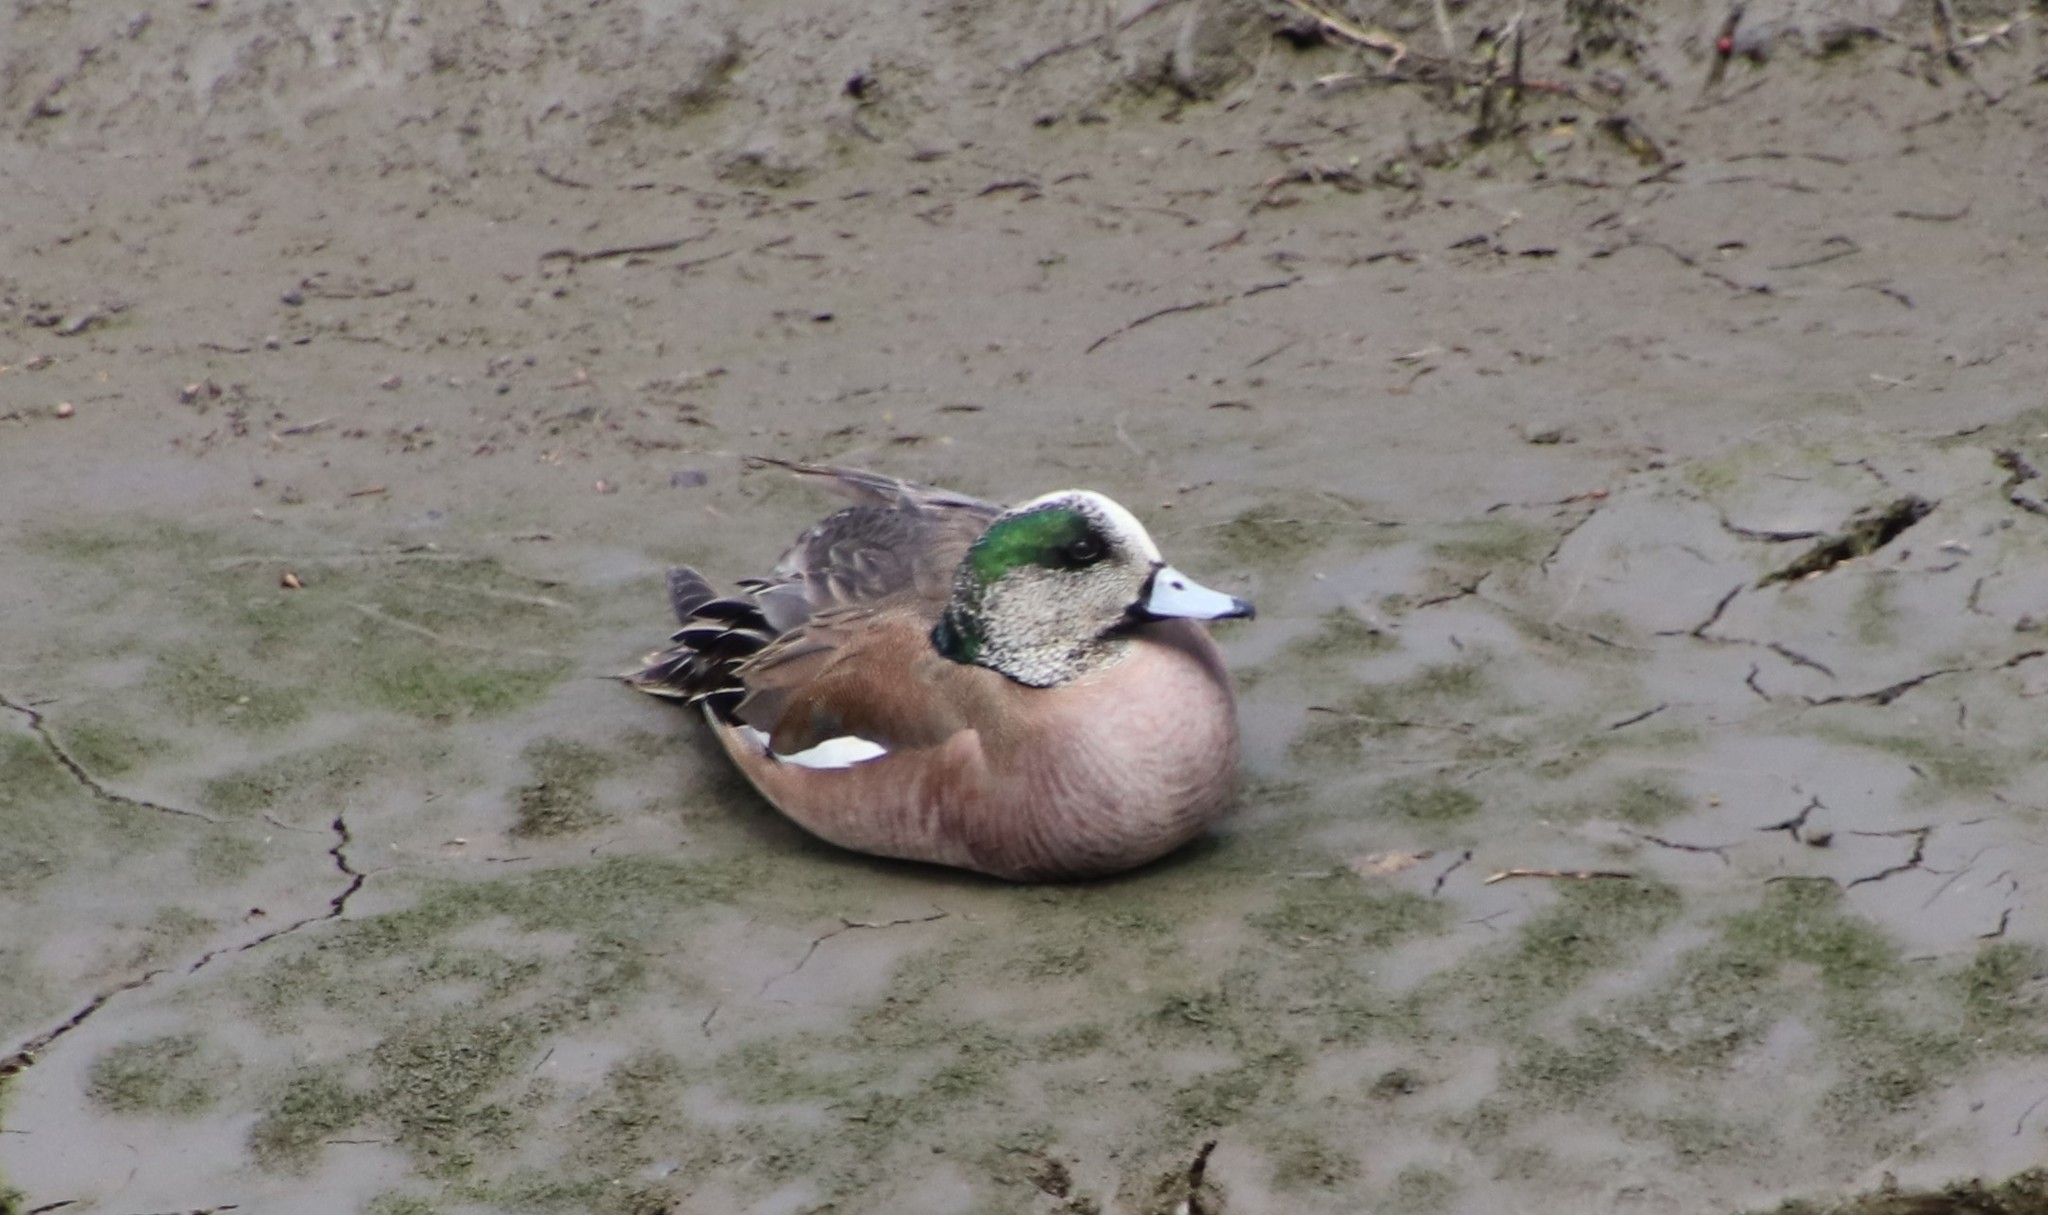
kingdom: Animalia
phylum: Chordata
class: Aves
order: Anseriformes
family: Anatidae
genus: Mareca
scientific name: Mareca americana
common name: American wigeon
